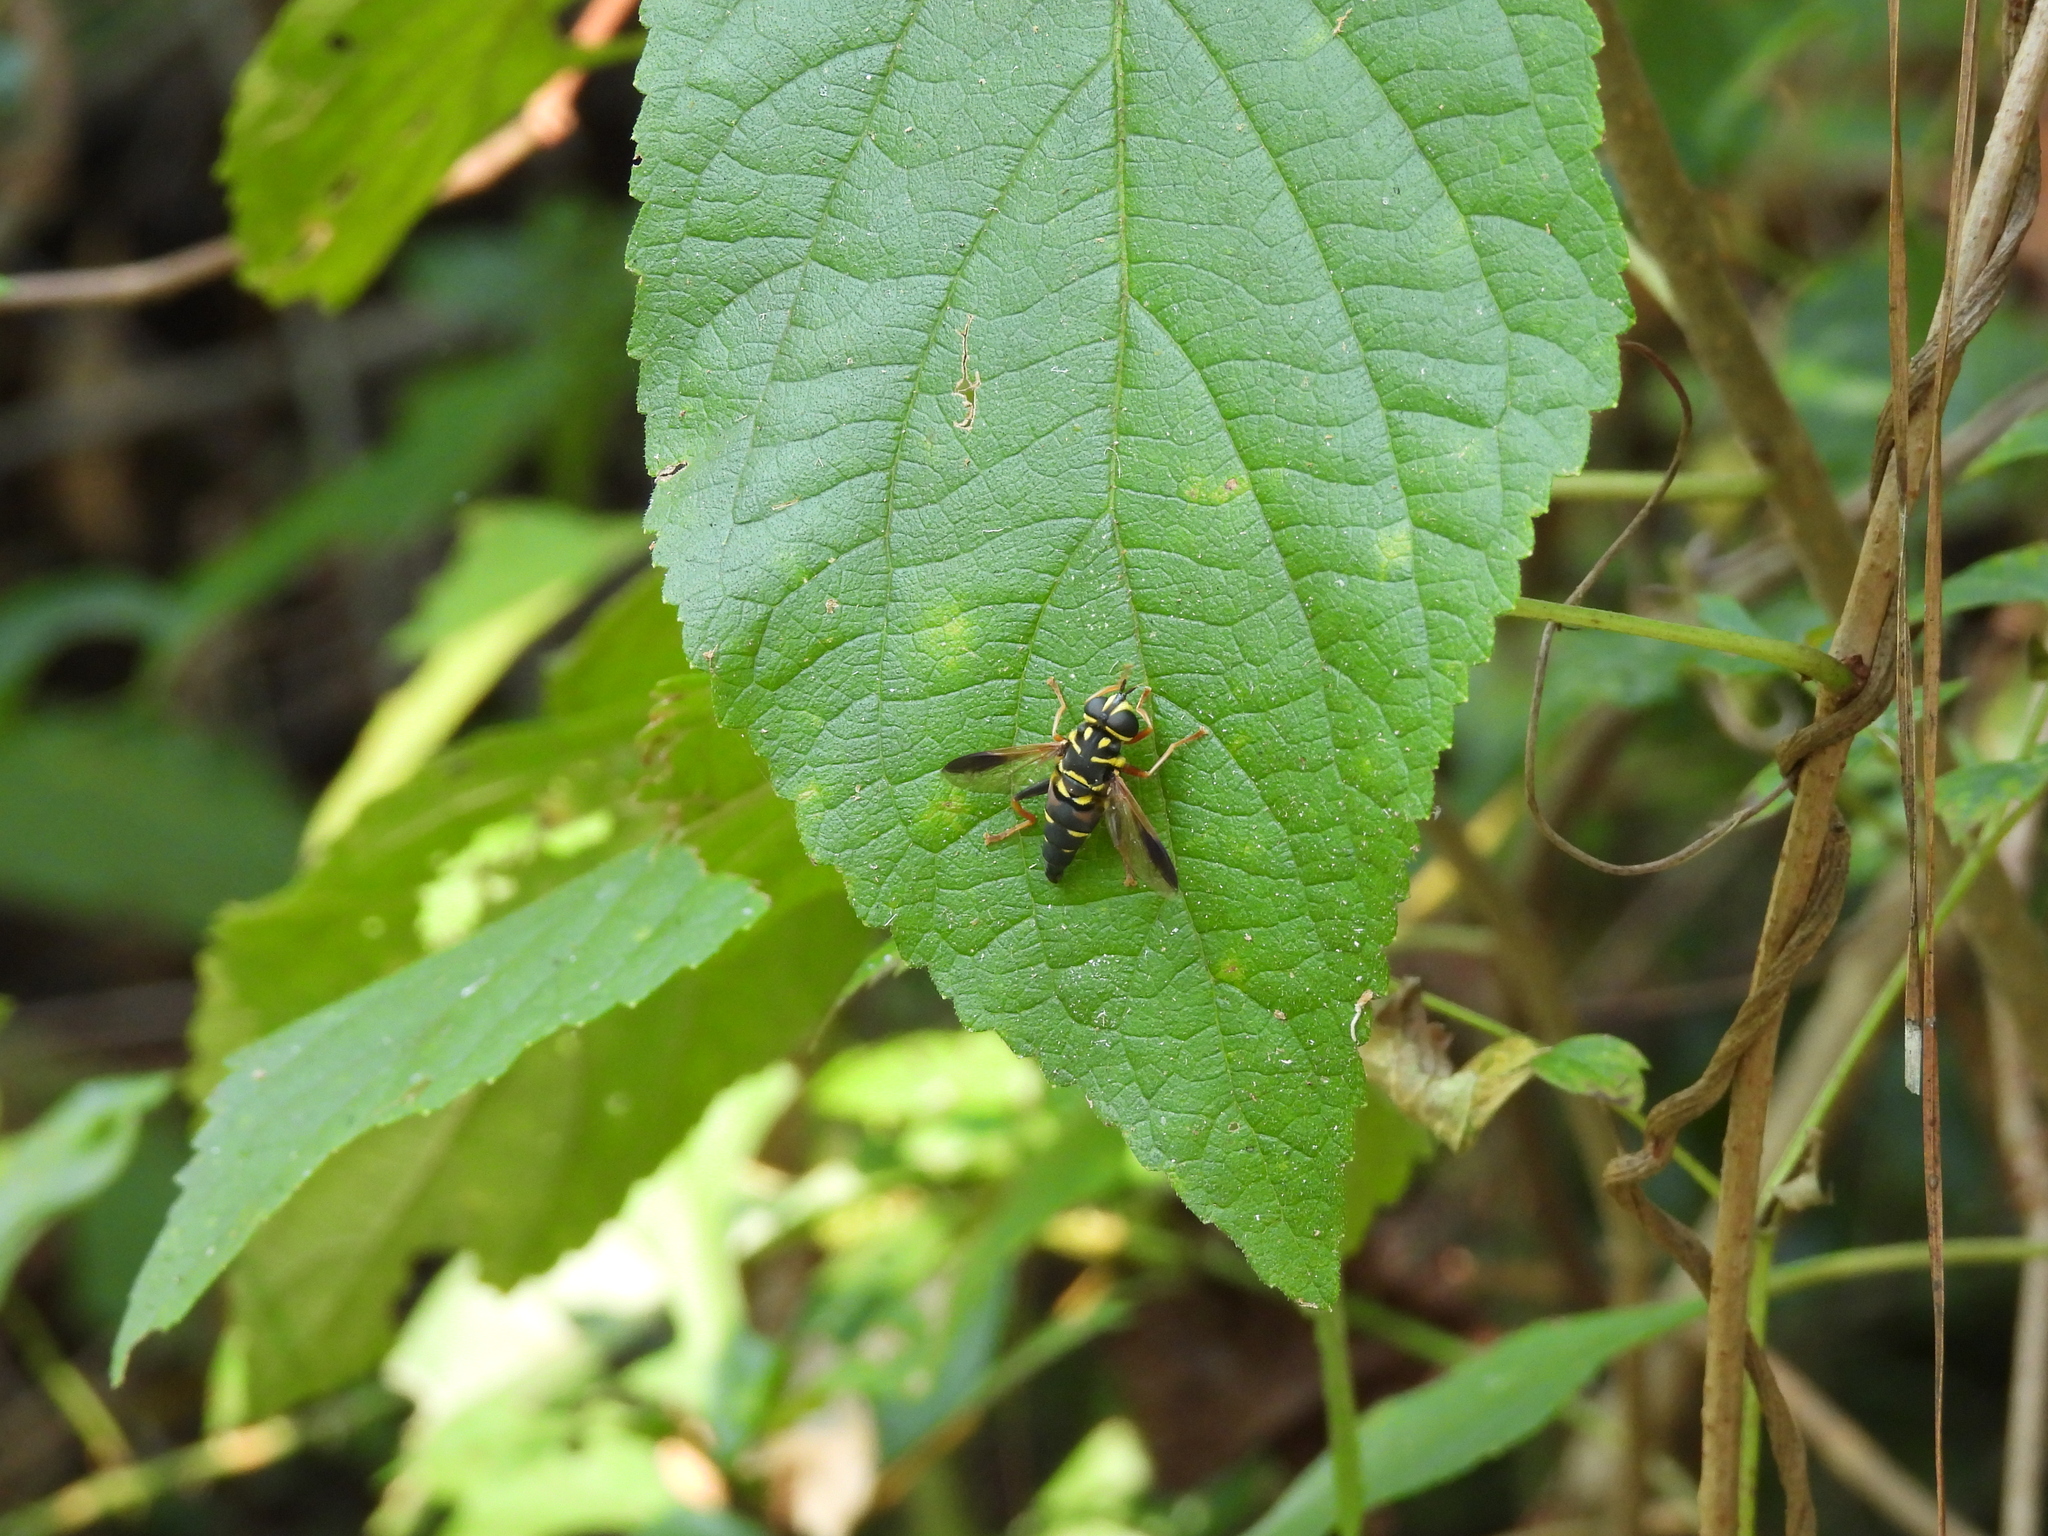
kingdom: Animalia
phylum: Arthropoda
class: Insecta
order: Diptera
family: Syrphidae
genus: Meromacrus
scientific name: Meromacrus acutus
